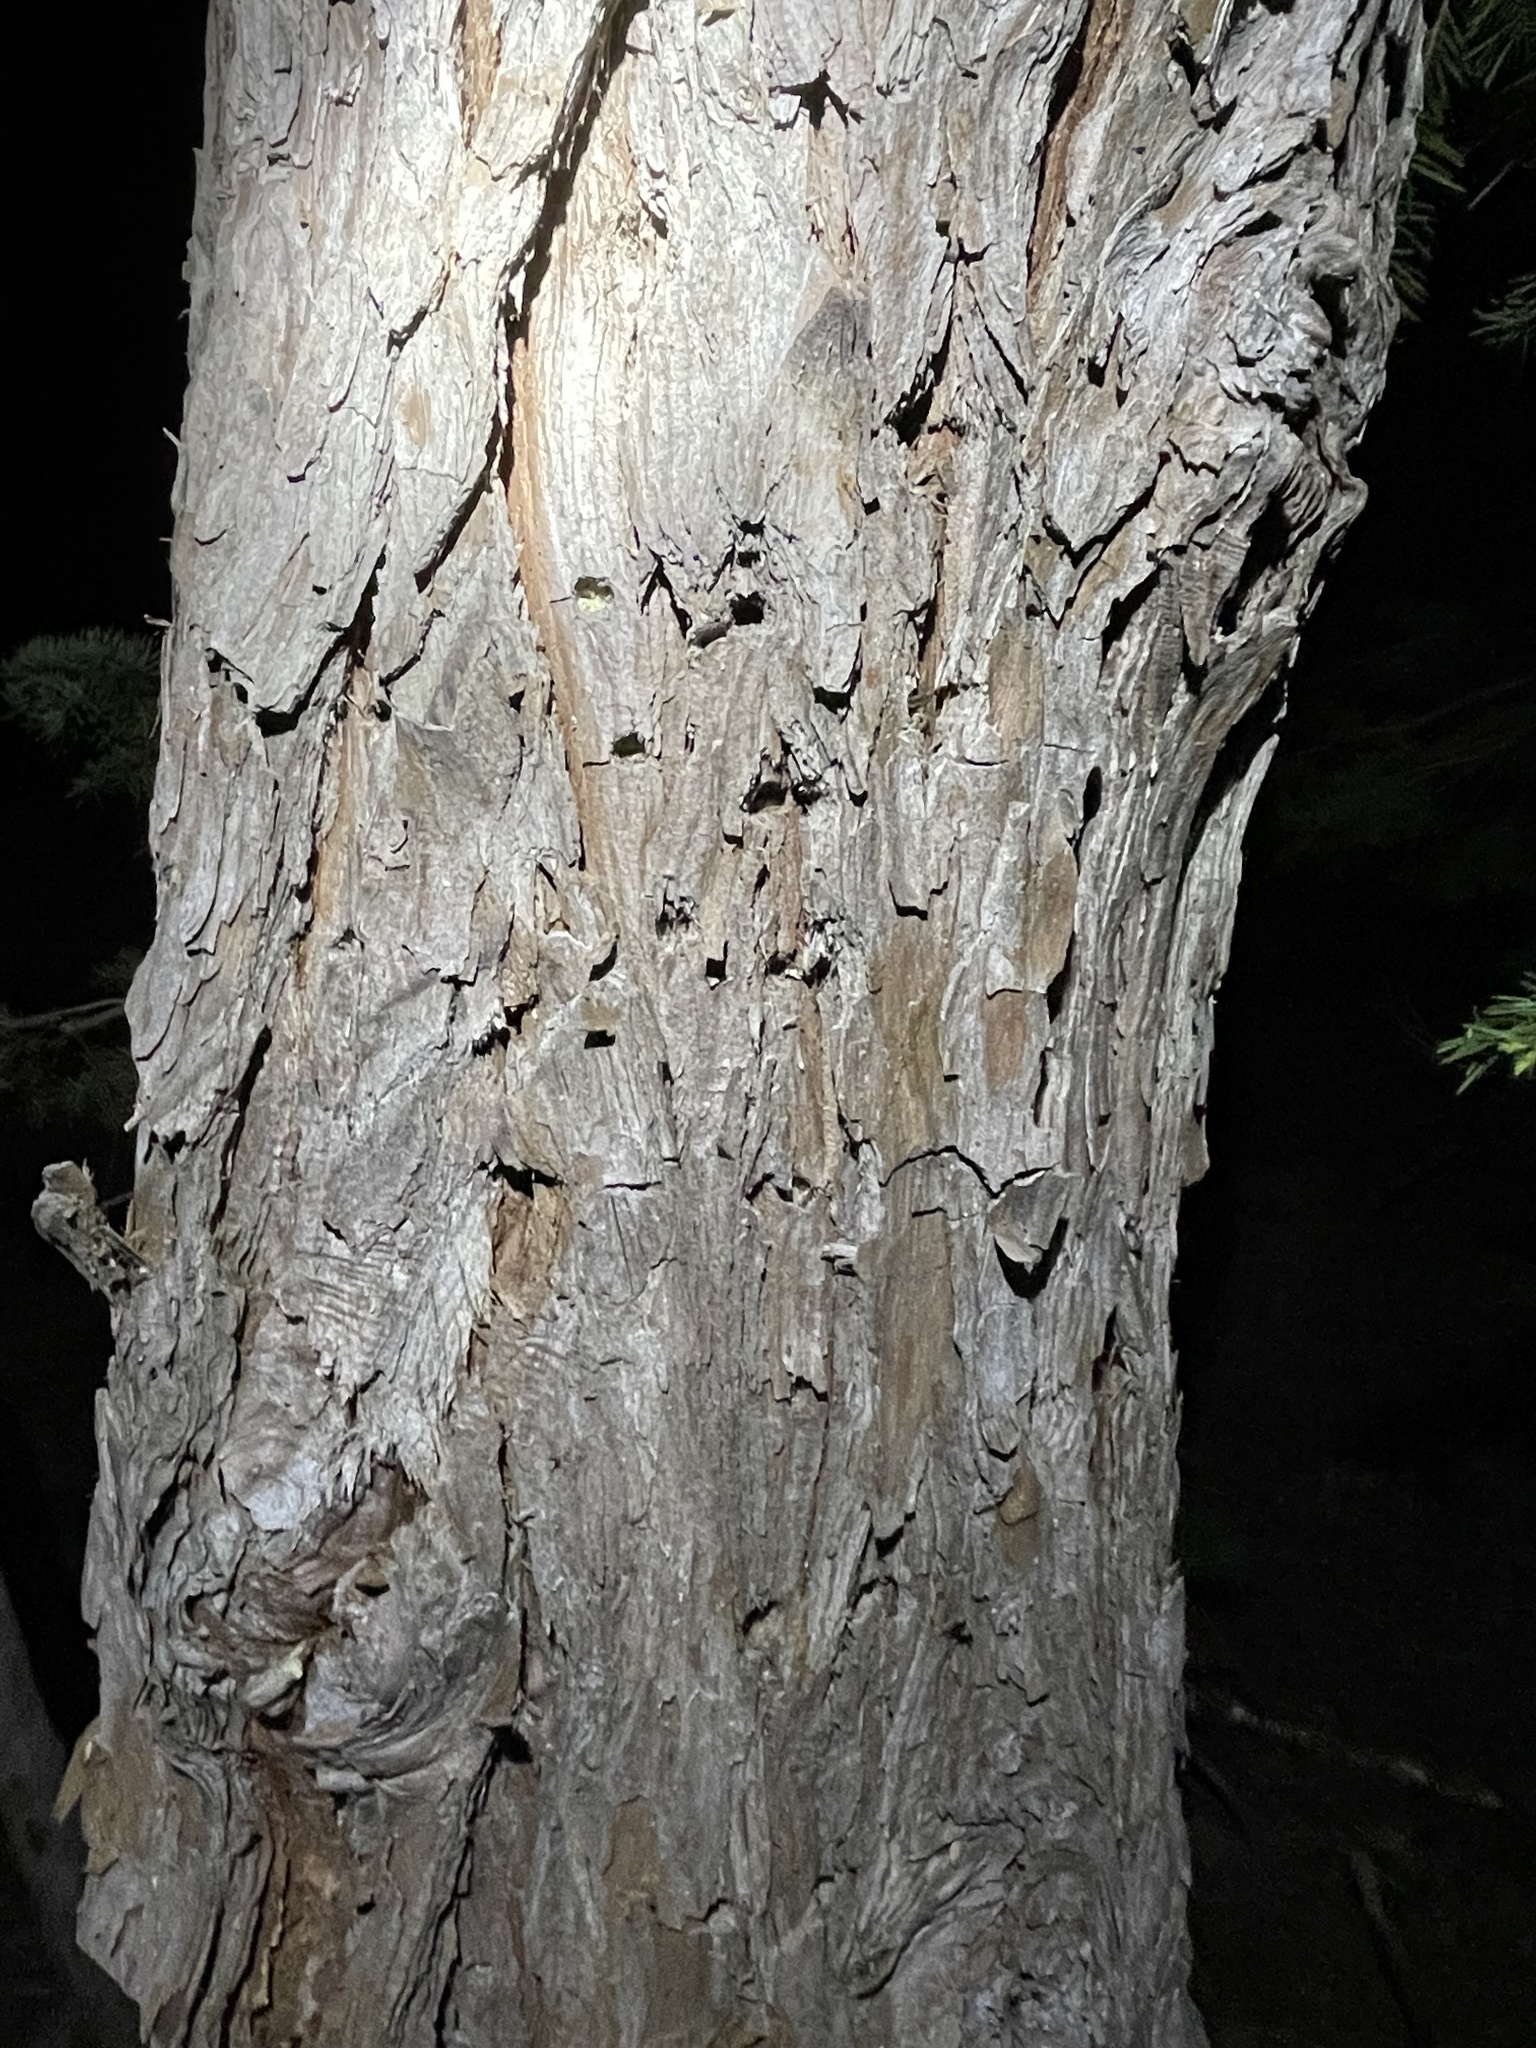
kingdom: Plantae
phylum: Tracheophyta
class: Pinopsida
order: Pinales
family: Cupressaceae
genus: Calocedrus
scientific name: Calocedrus decurrens
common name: Californian incense-cedar
